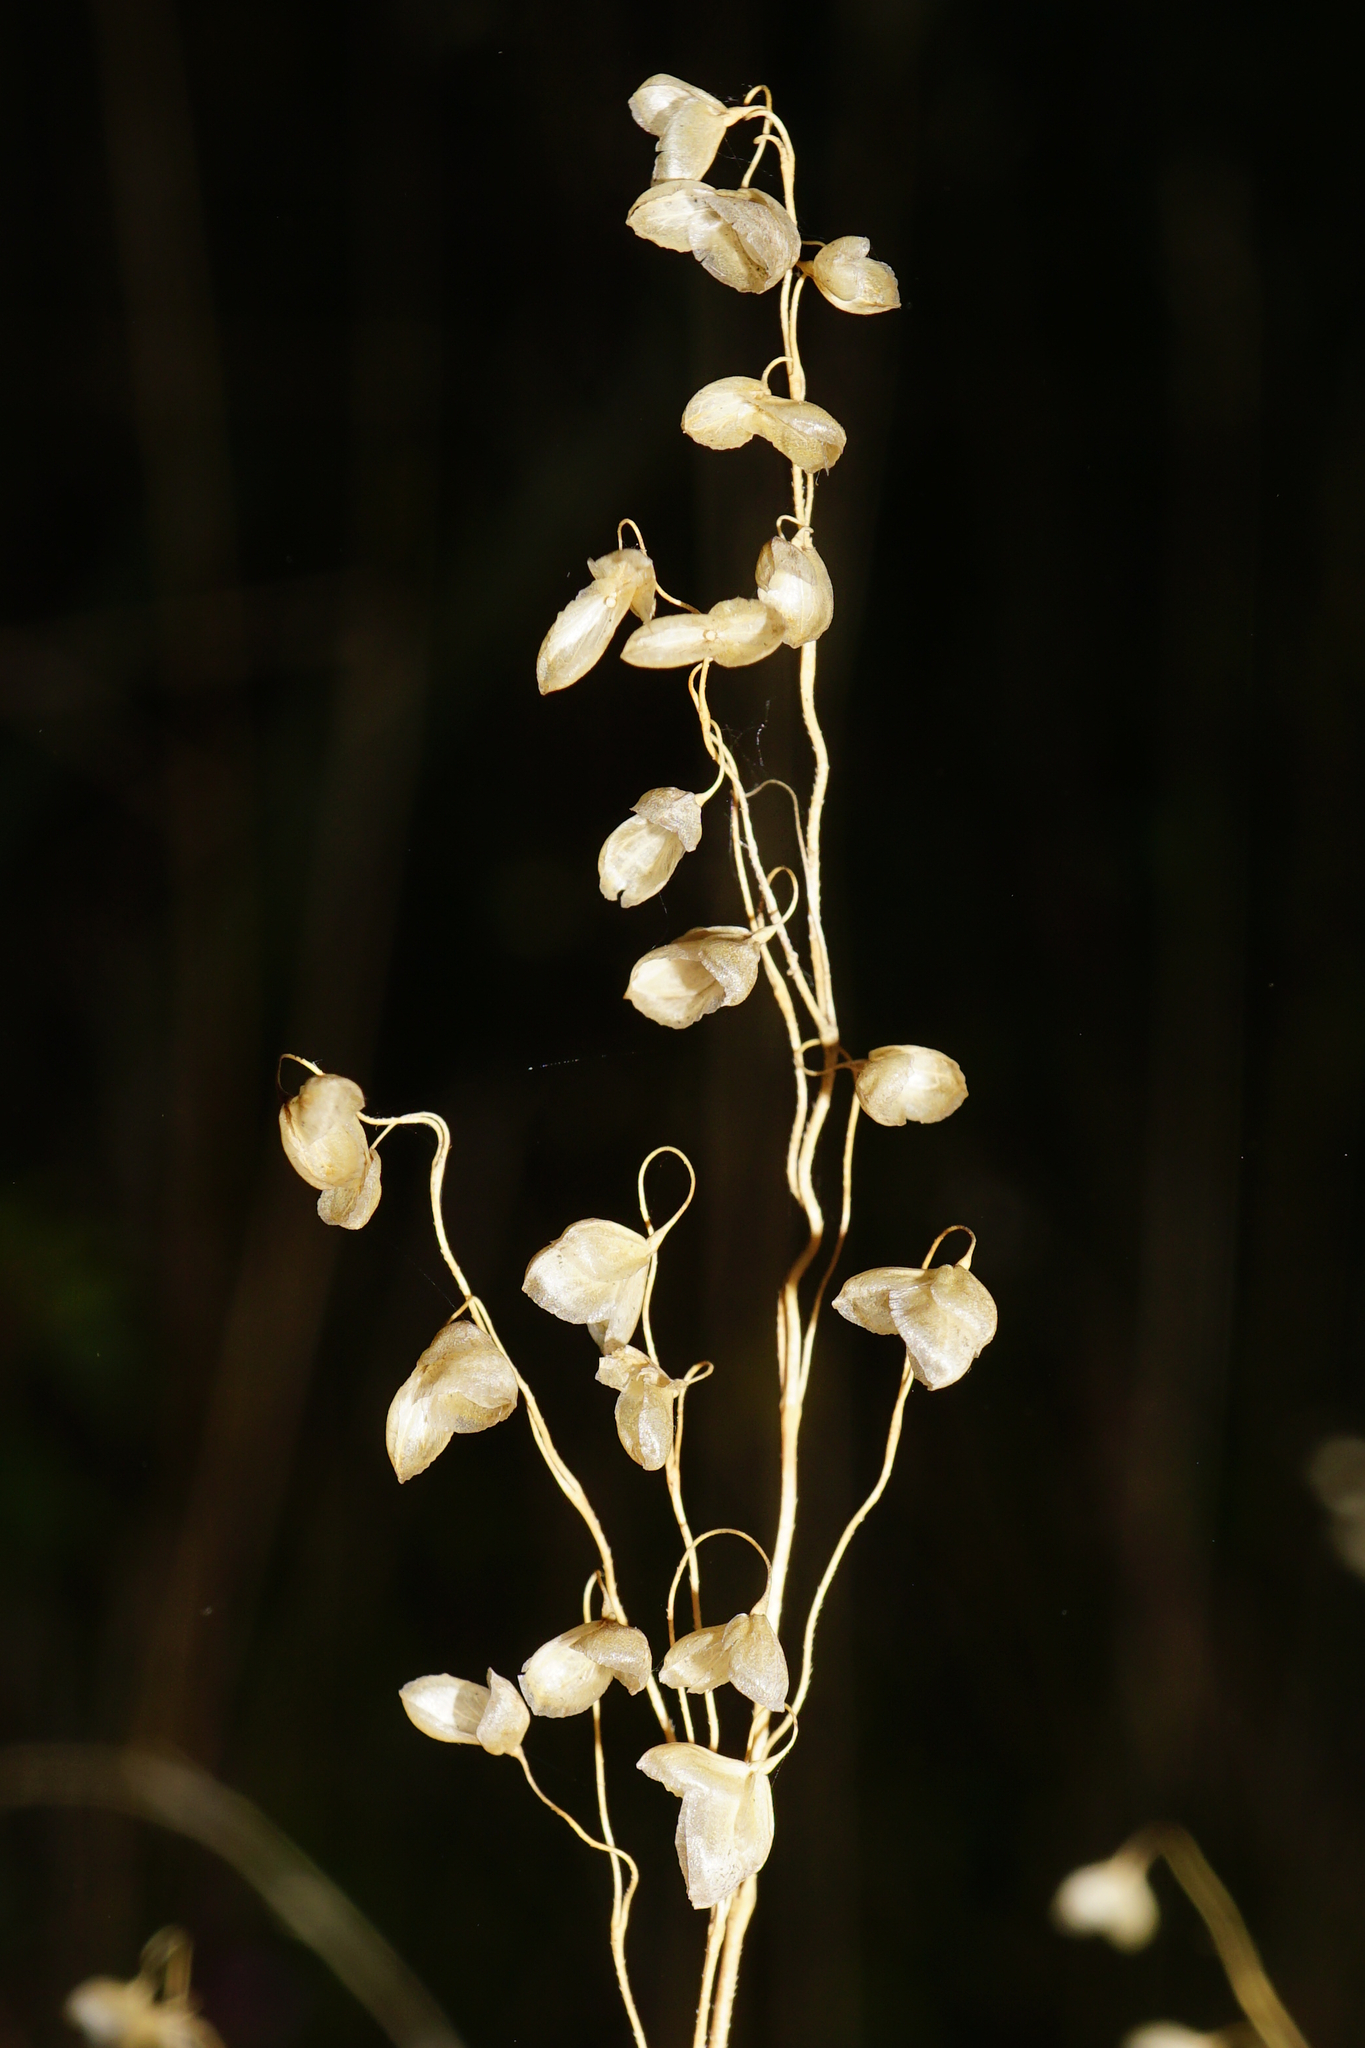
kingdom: Plantae
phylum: Tracheophyta
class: Liliopsida
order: Poales
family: Poaceae
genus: Briza
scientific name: Briza media
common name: Quaking grass
